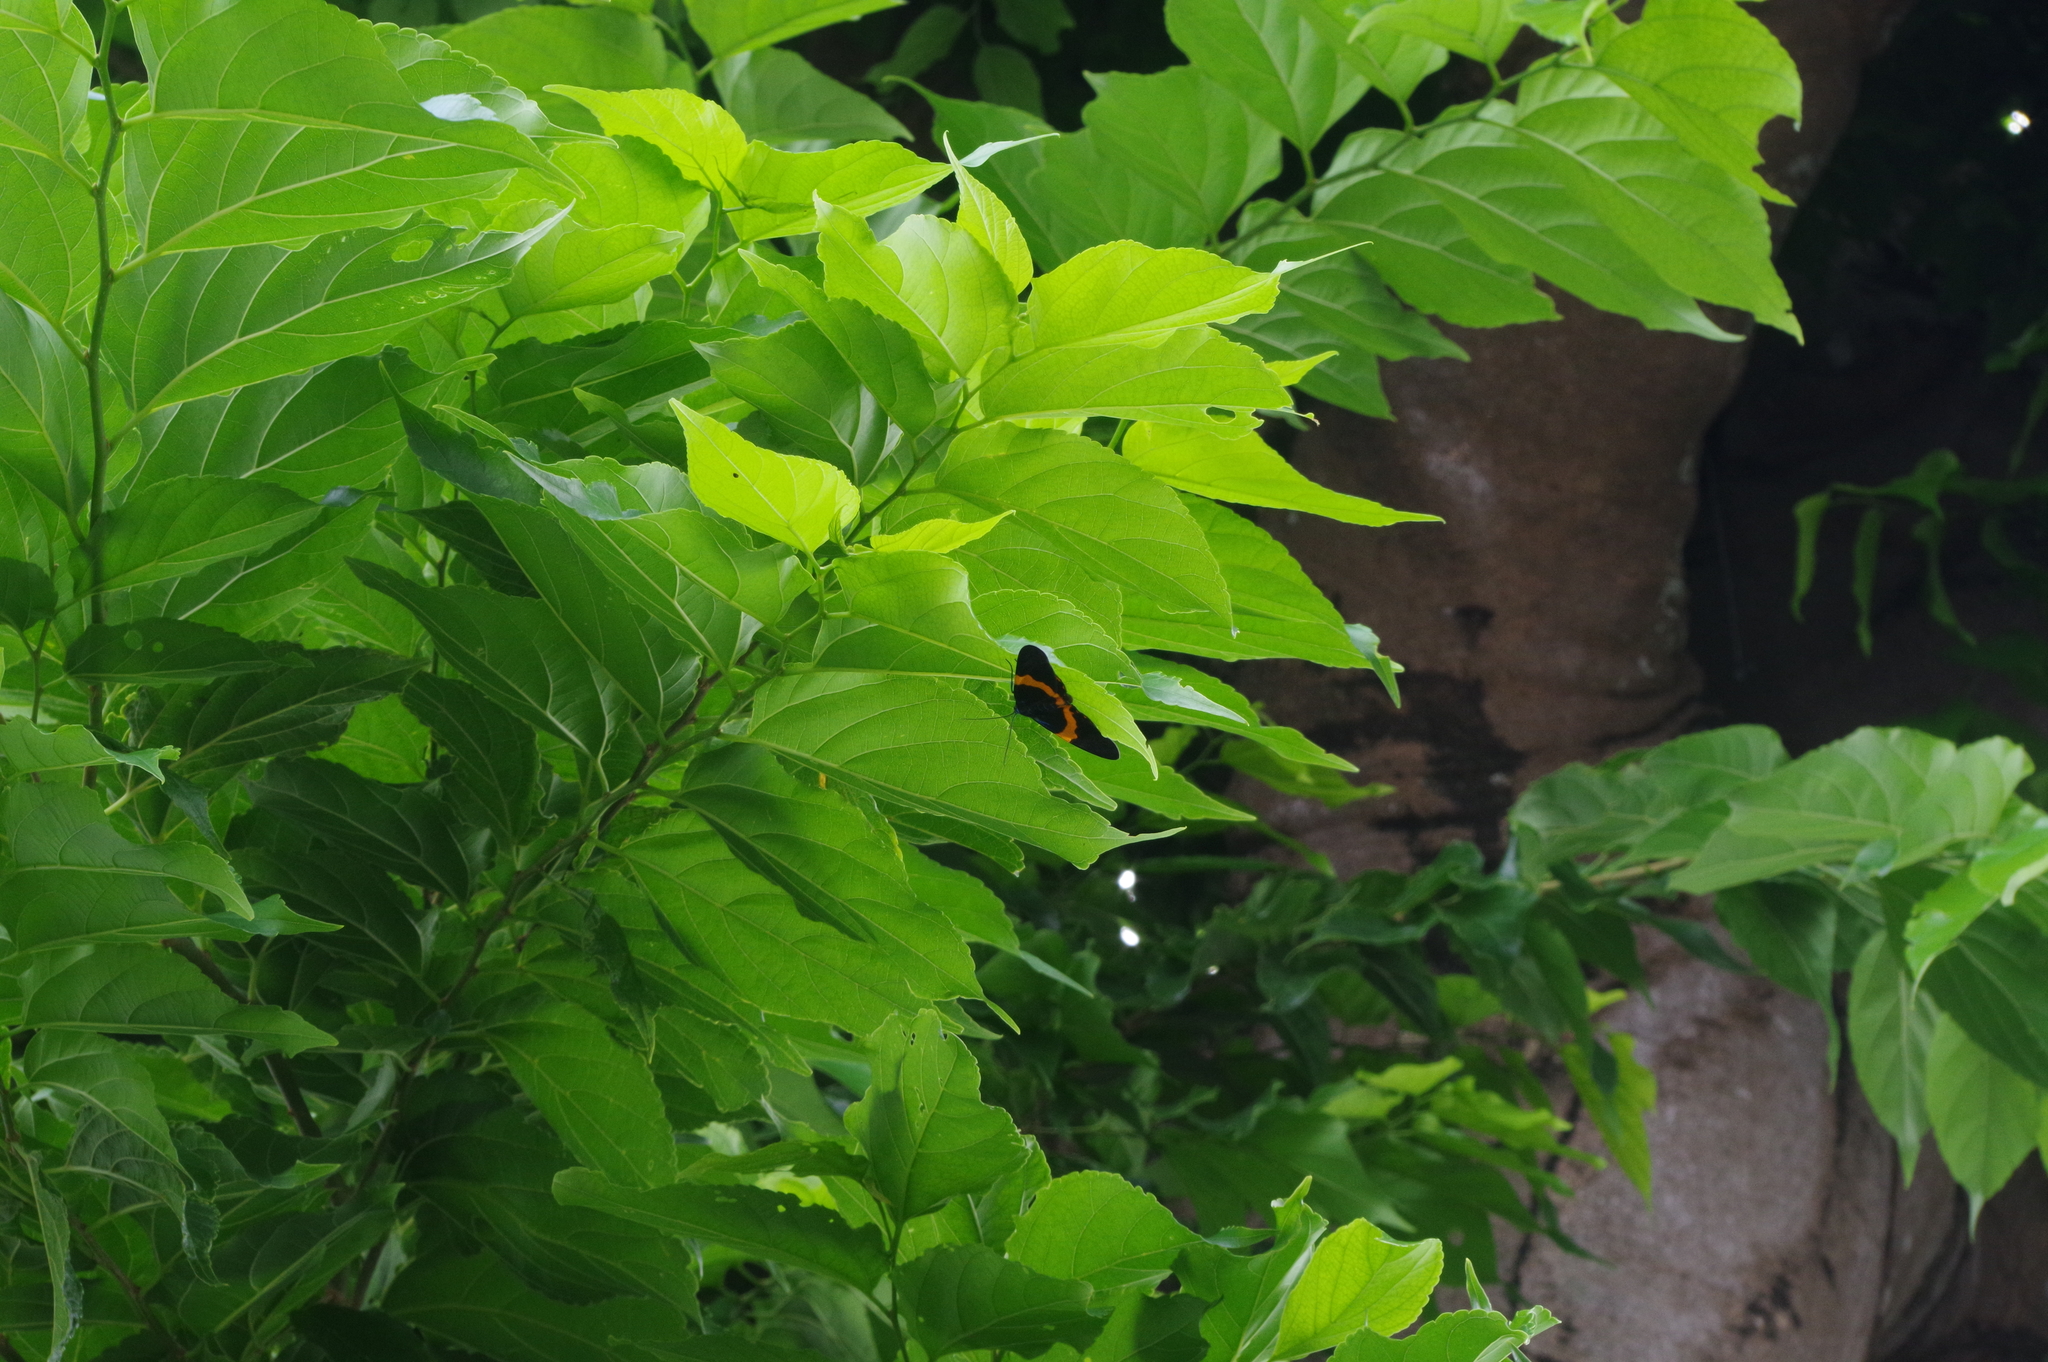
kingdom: Animalia
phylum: Arthropoda
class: Insecta
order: Lepidoptera
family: Geometridae
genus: Milionia
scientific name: Milionia basalis
